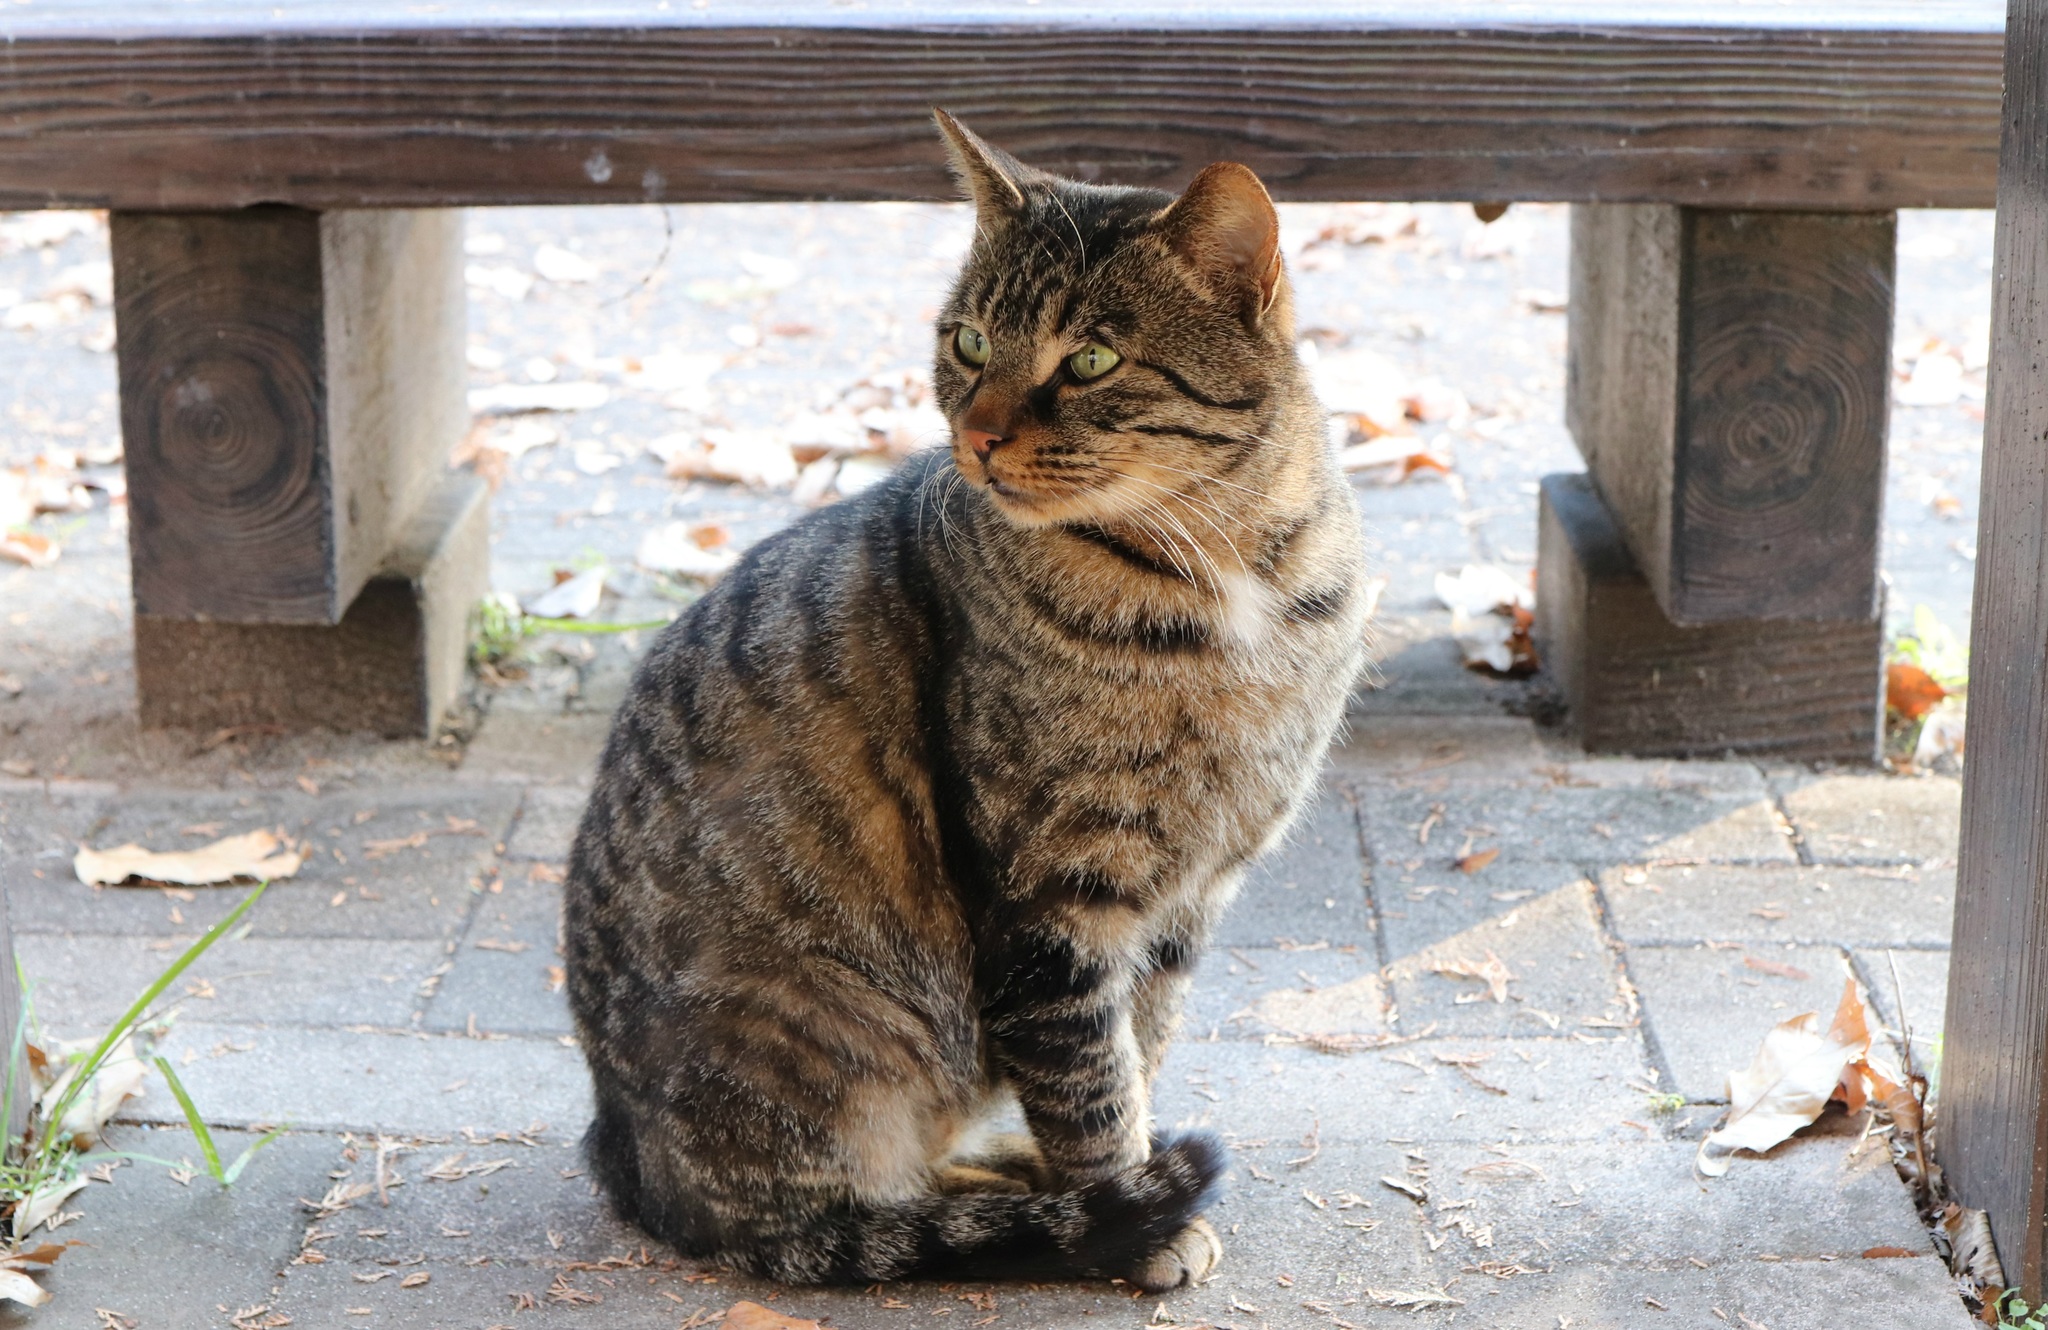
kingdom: Animalia
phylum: Chordata
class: Mammalia
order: Carnivora
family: Felidae
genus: Felis
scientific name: Felis catus
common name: Domestic cat
